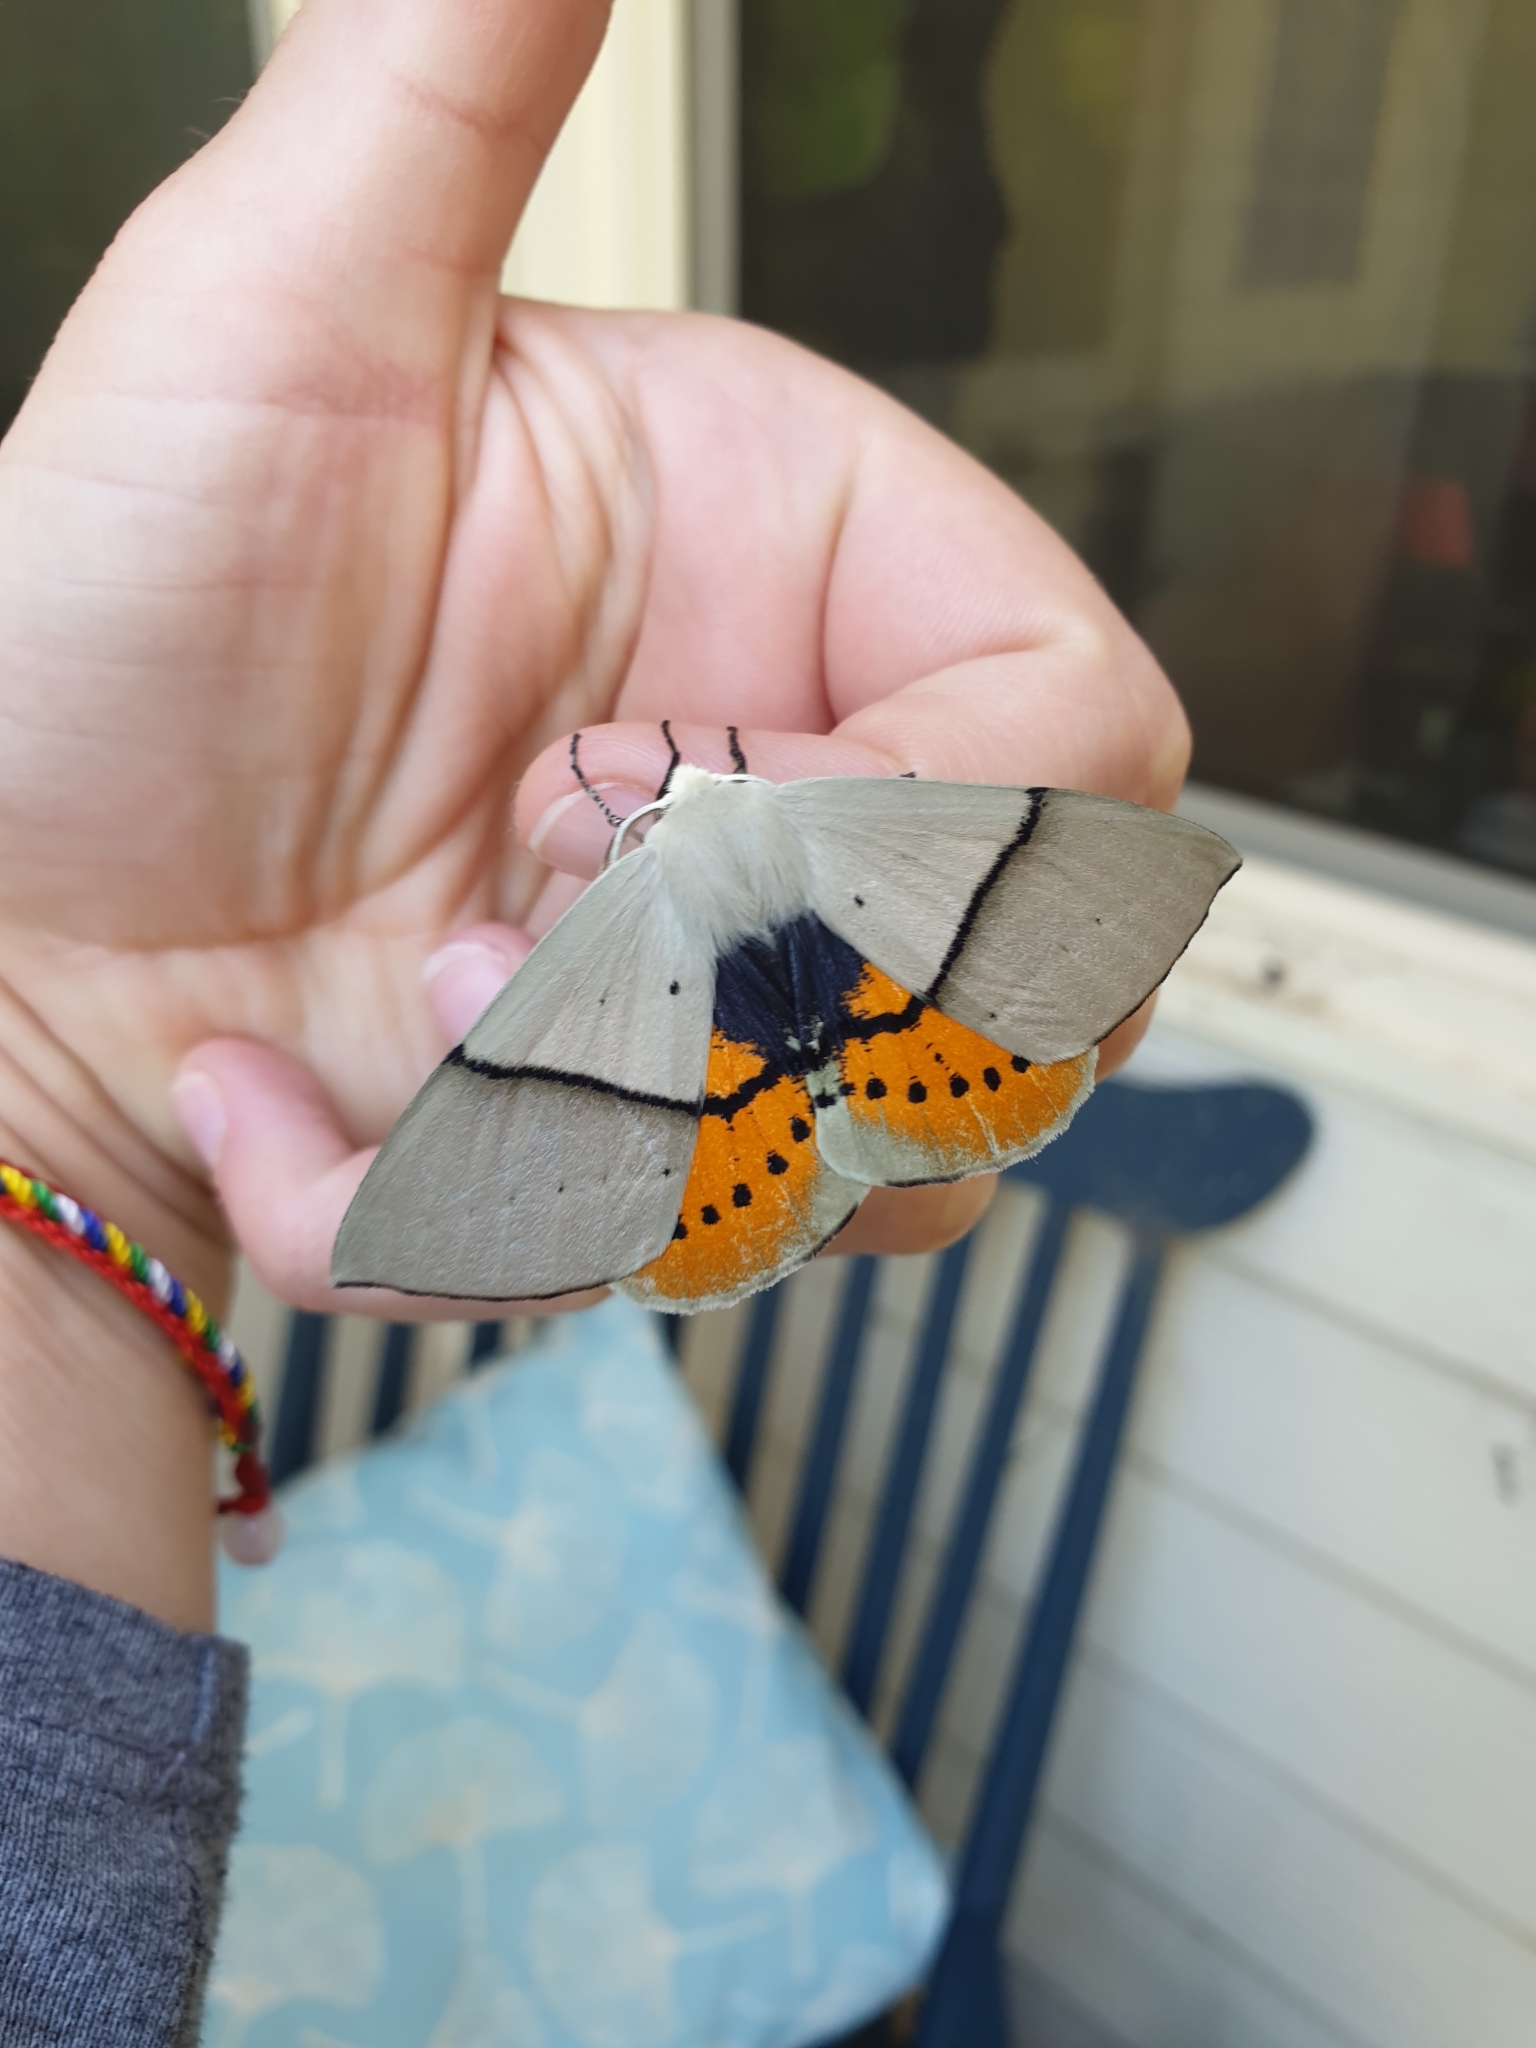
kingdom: Animalia
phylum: Arthropoda
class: Insecta
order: Lepidoptera
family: Geometridae
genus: Gastrophora
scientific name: Gastrophora henricaria
